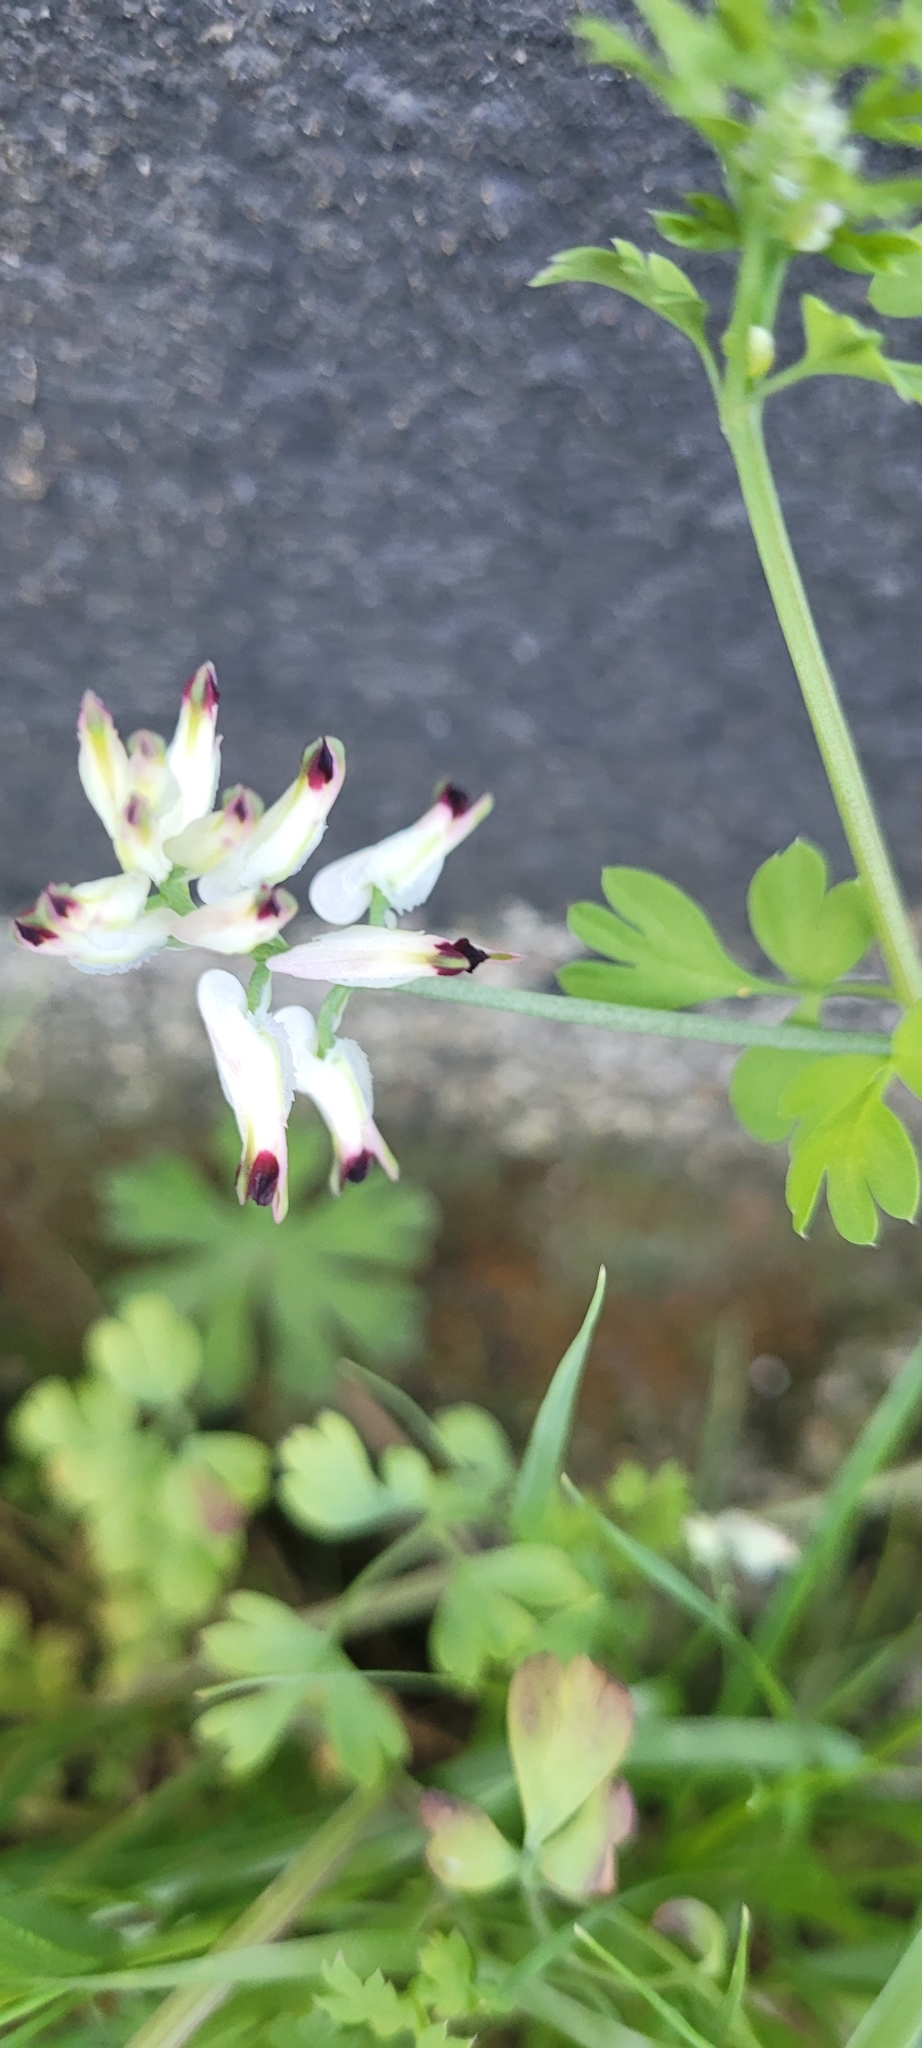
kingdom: Plantae
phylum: Tracheophyta
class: Magnoliopsida
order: Ranunculales
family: Papaveraceae
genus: Fumaria
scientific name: Fumaria capreolata
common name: White ramping-fumitory
